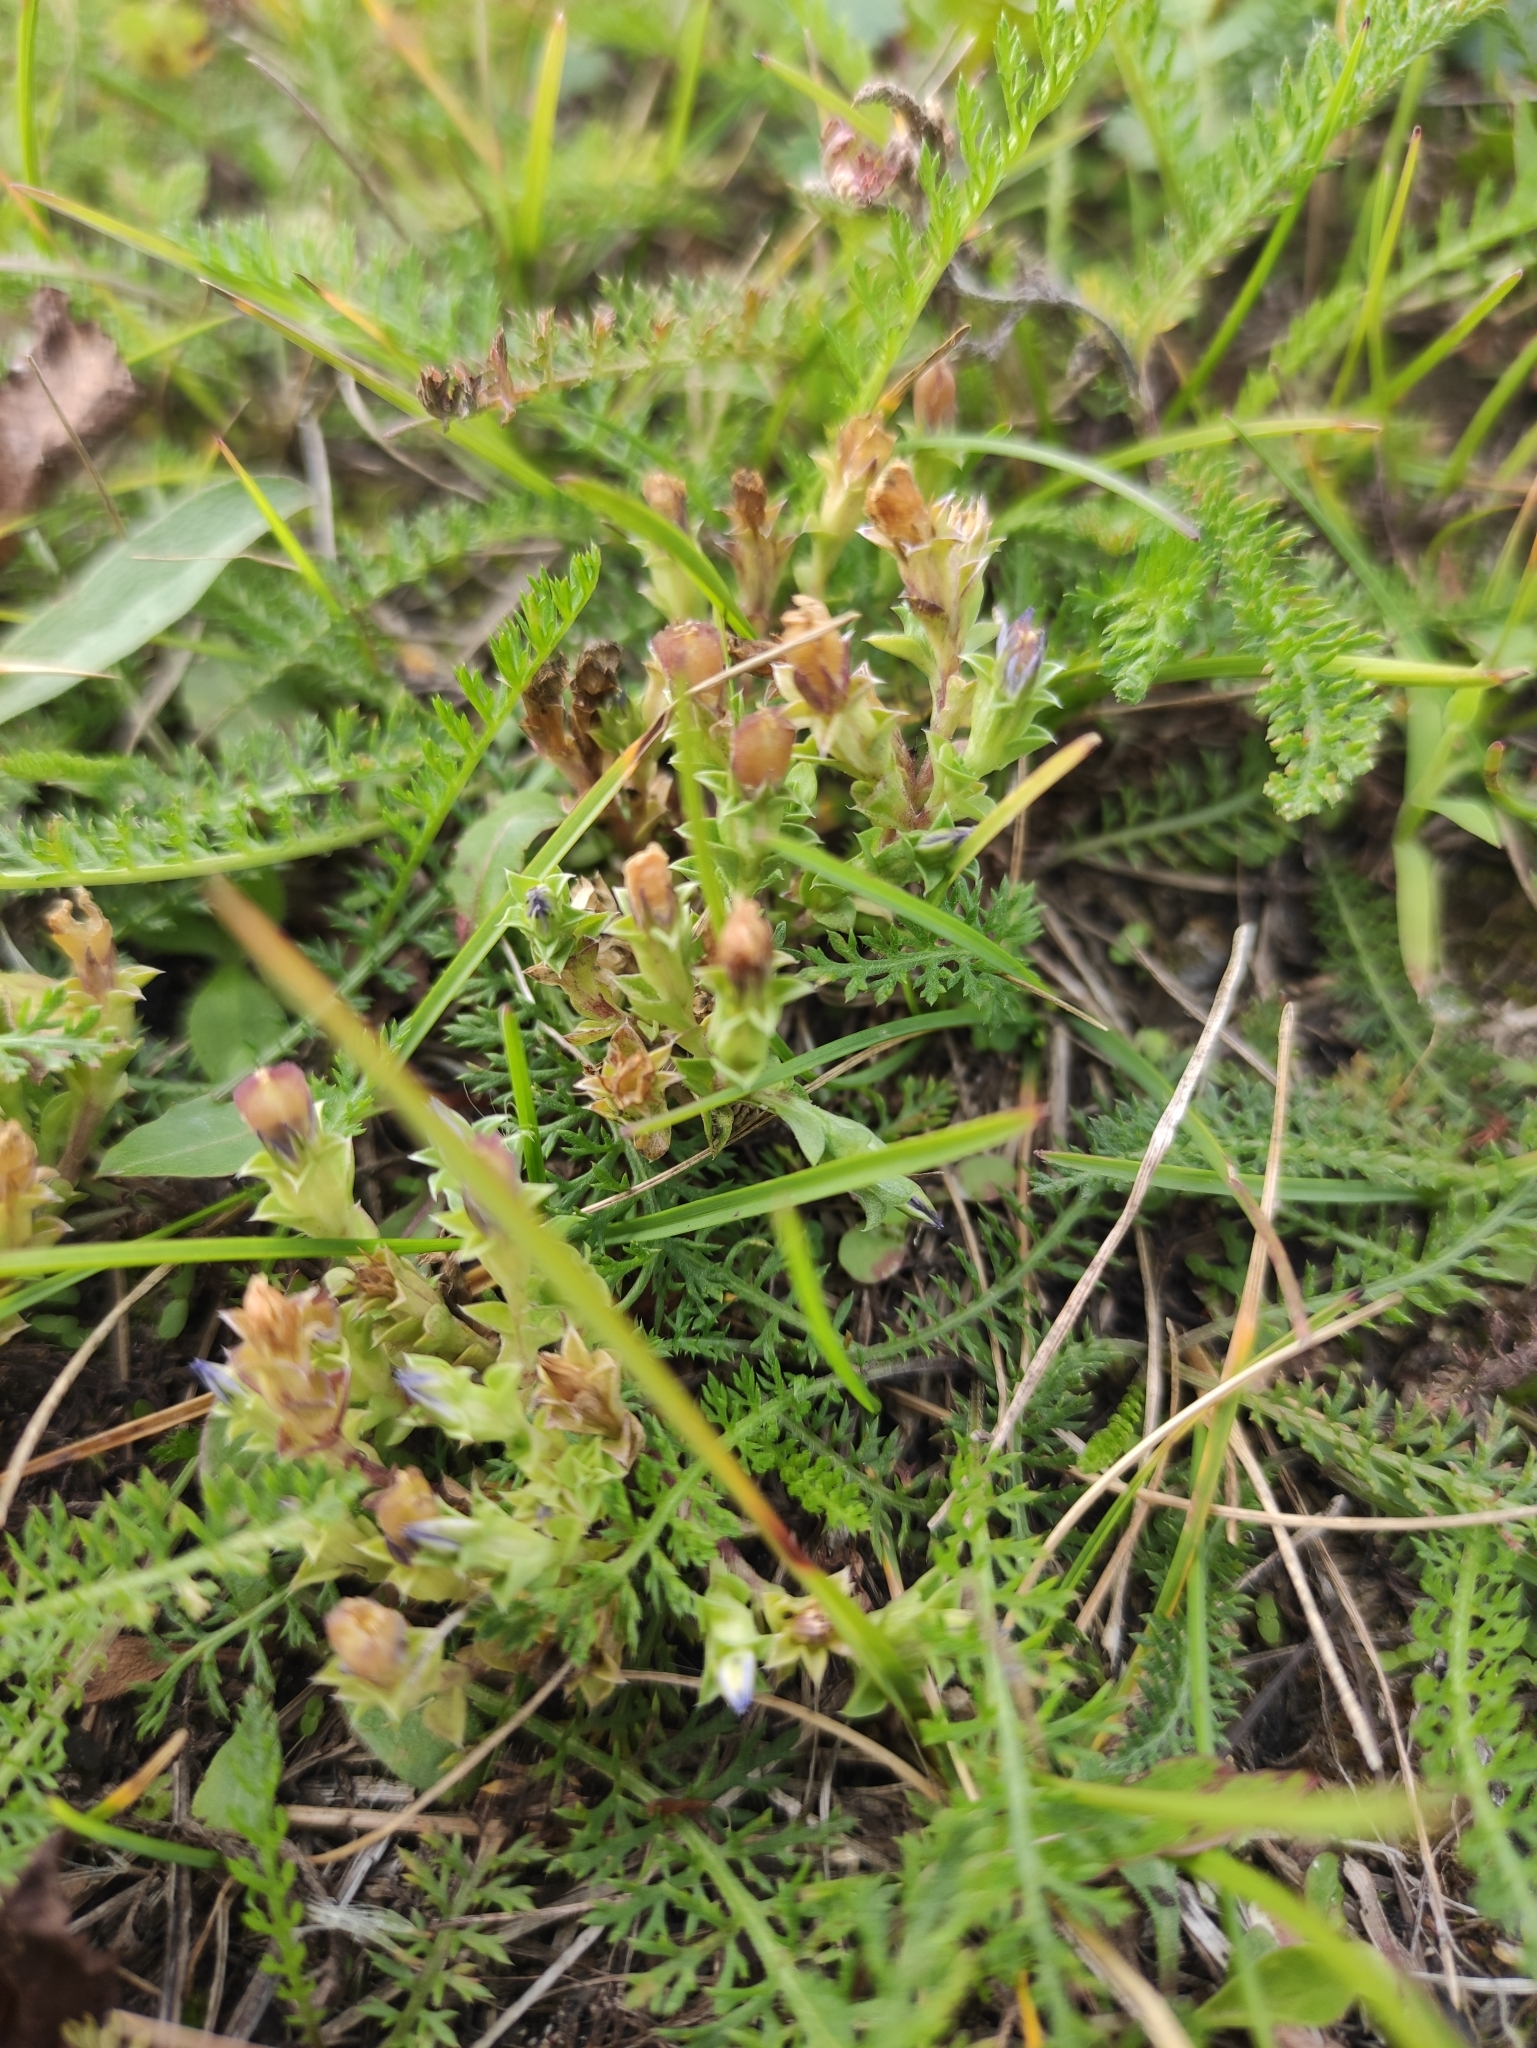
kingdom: Plantae
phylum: Tracheophyta
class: Magnoliopsida
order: Gentianales
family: Gentianaceae
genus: Gentiana
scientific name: Gentiana squarrosa
